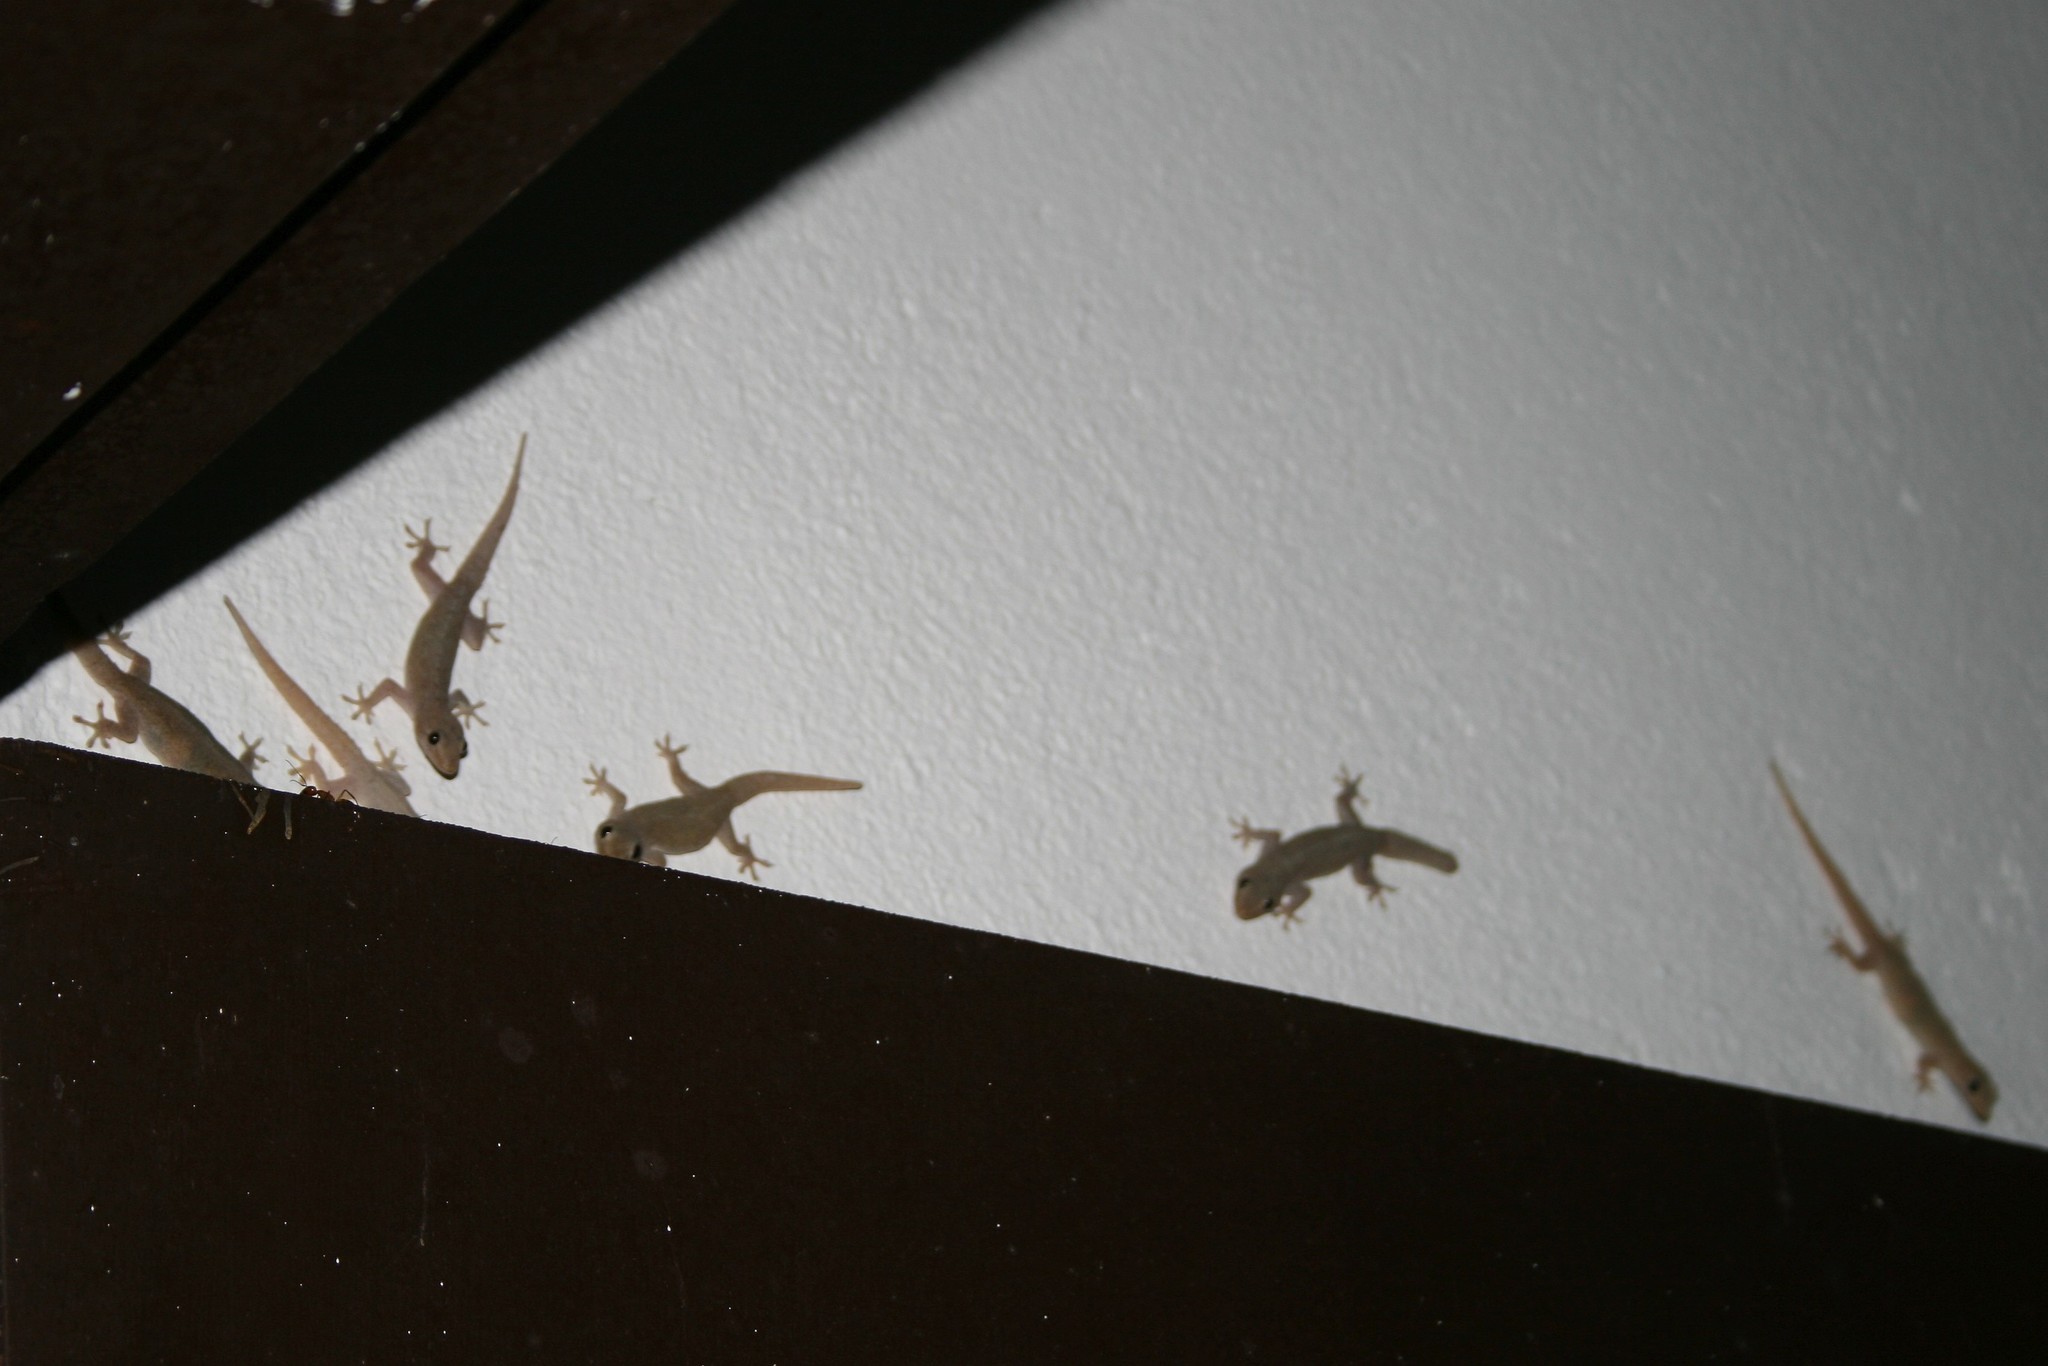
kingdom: Animalia
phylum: Chordata
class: Squamata
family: Gekkonidae
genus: Hemidactylus
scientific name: Hemidactylus frenatus
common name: Common house gecko
